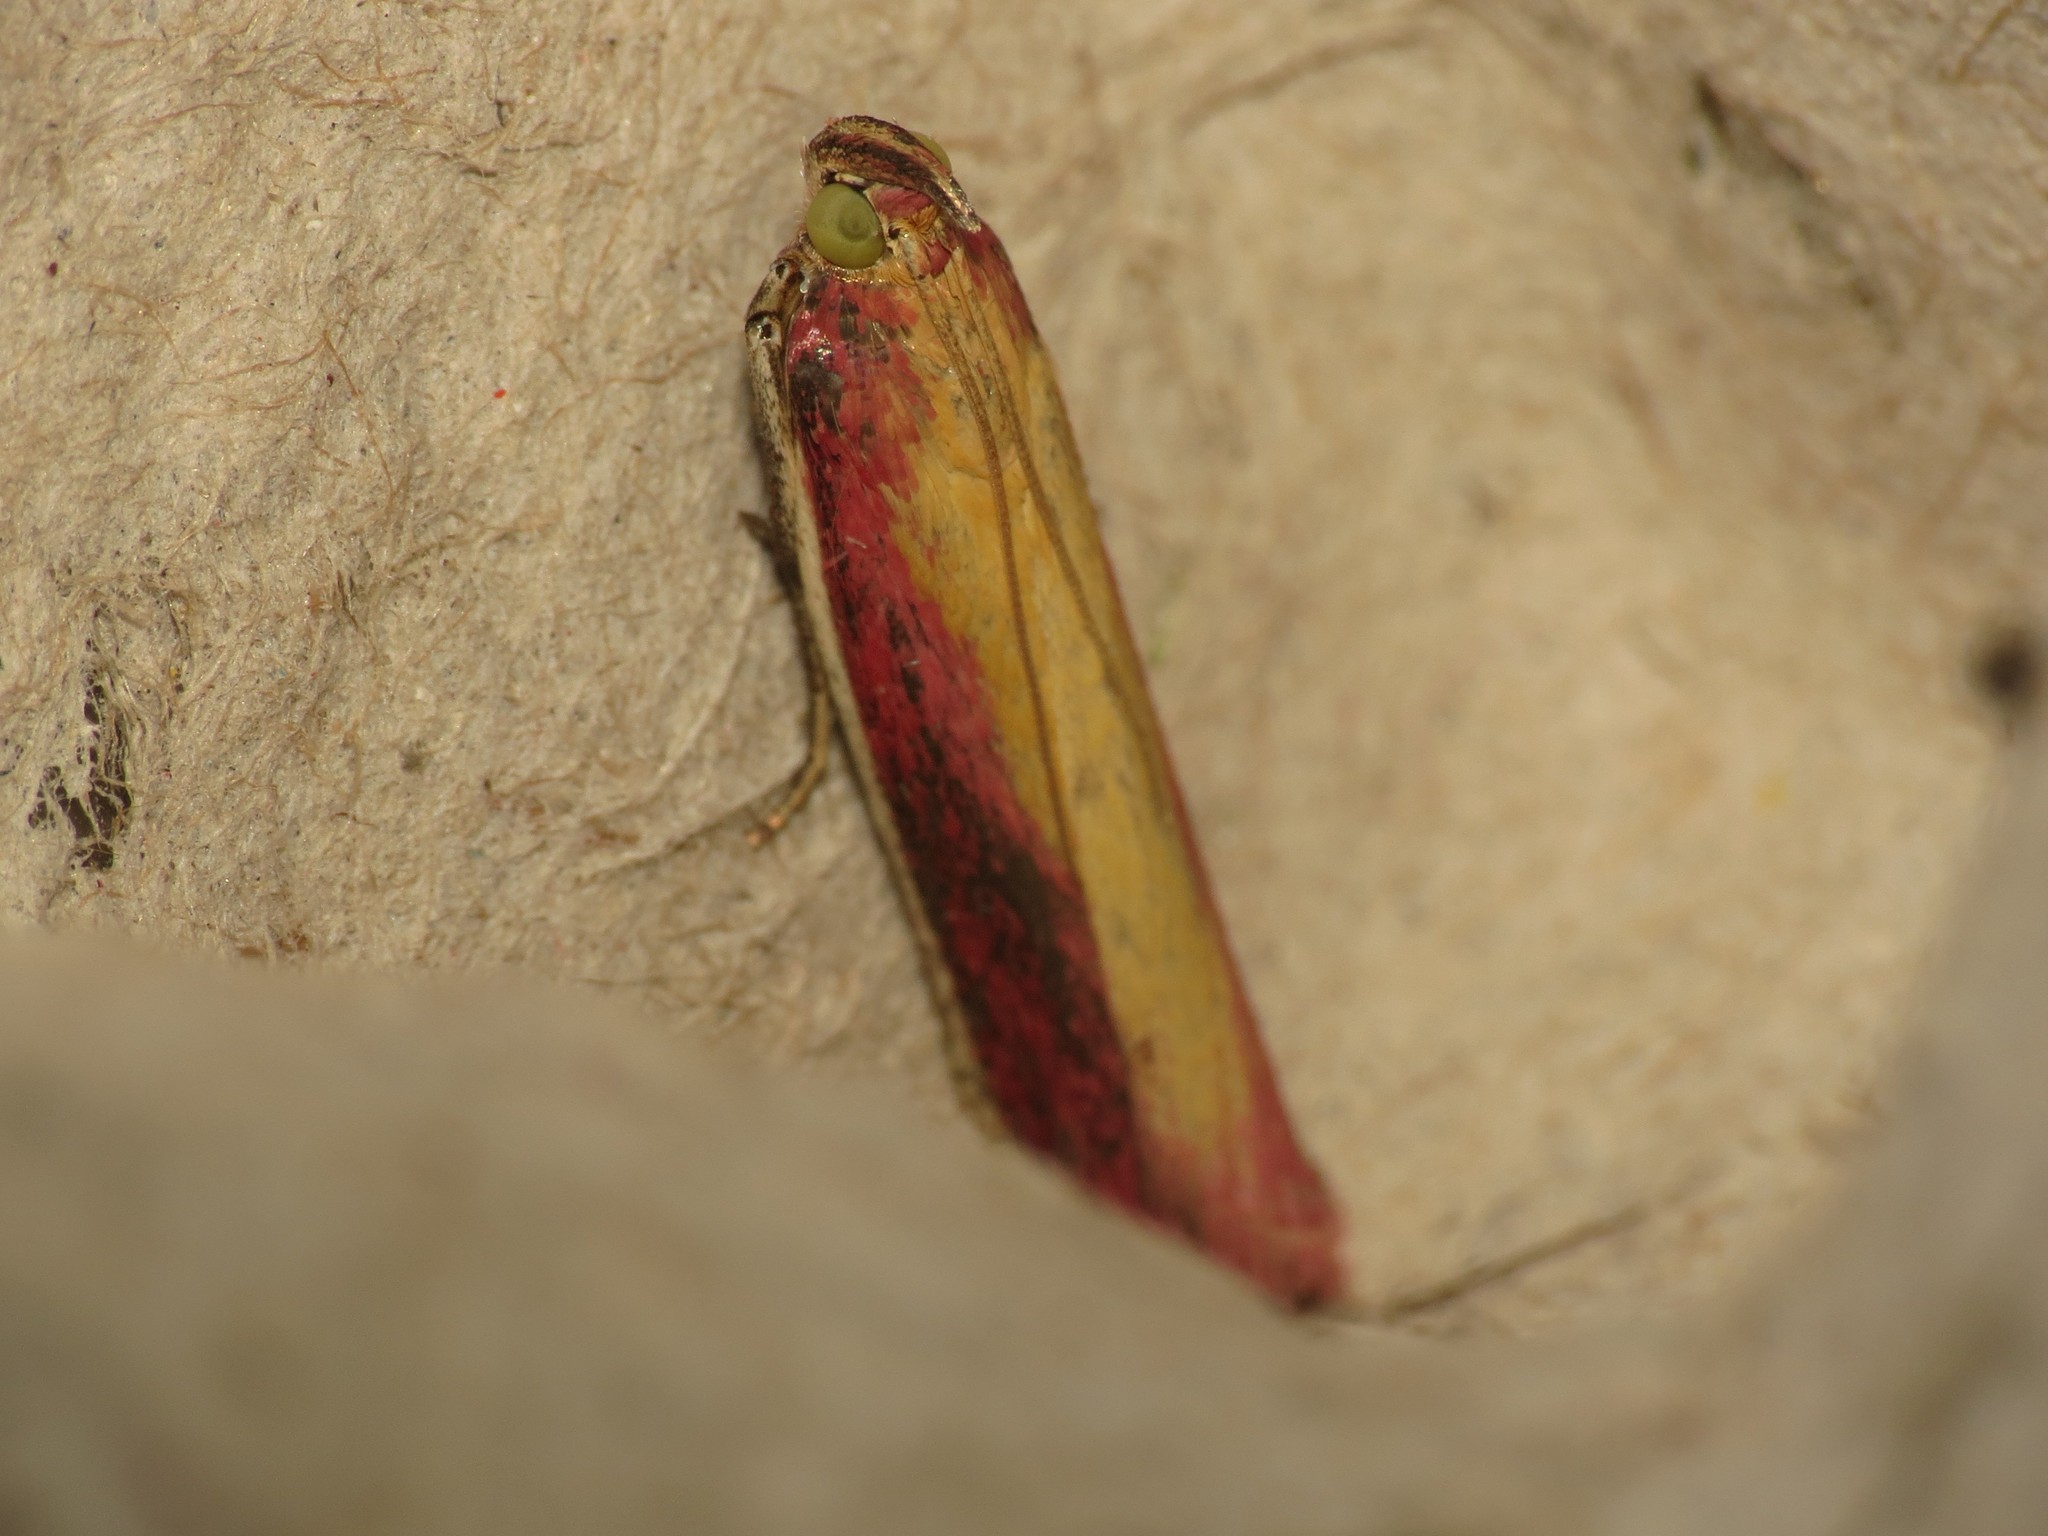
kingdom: Animalia
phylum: Arthropoda
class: Insecta
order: Lepidoptera
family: Pyralidae
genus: Oncocera
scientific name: Oncocera semirubella
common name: Rosy-striped knot-horn
